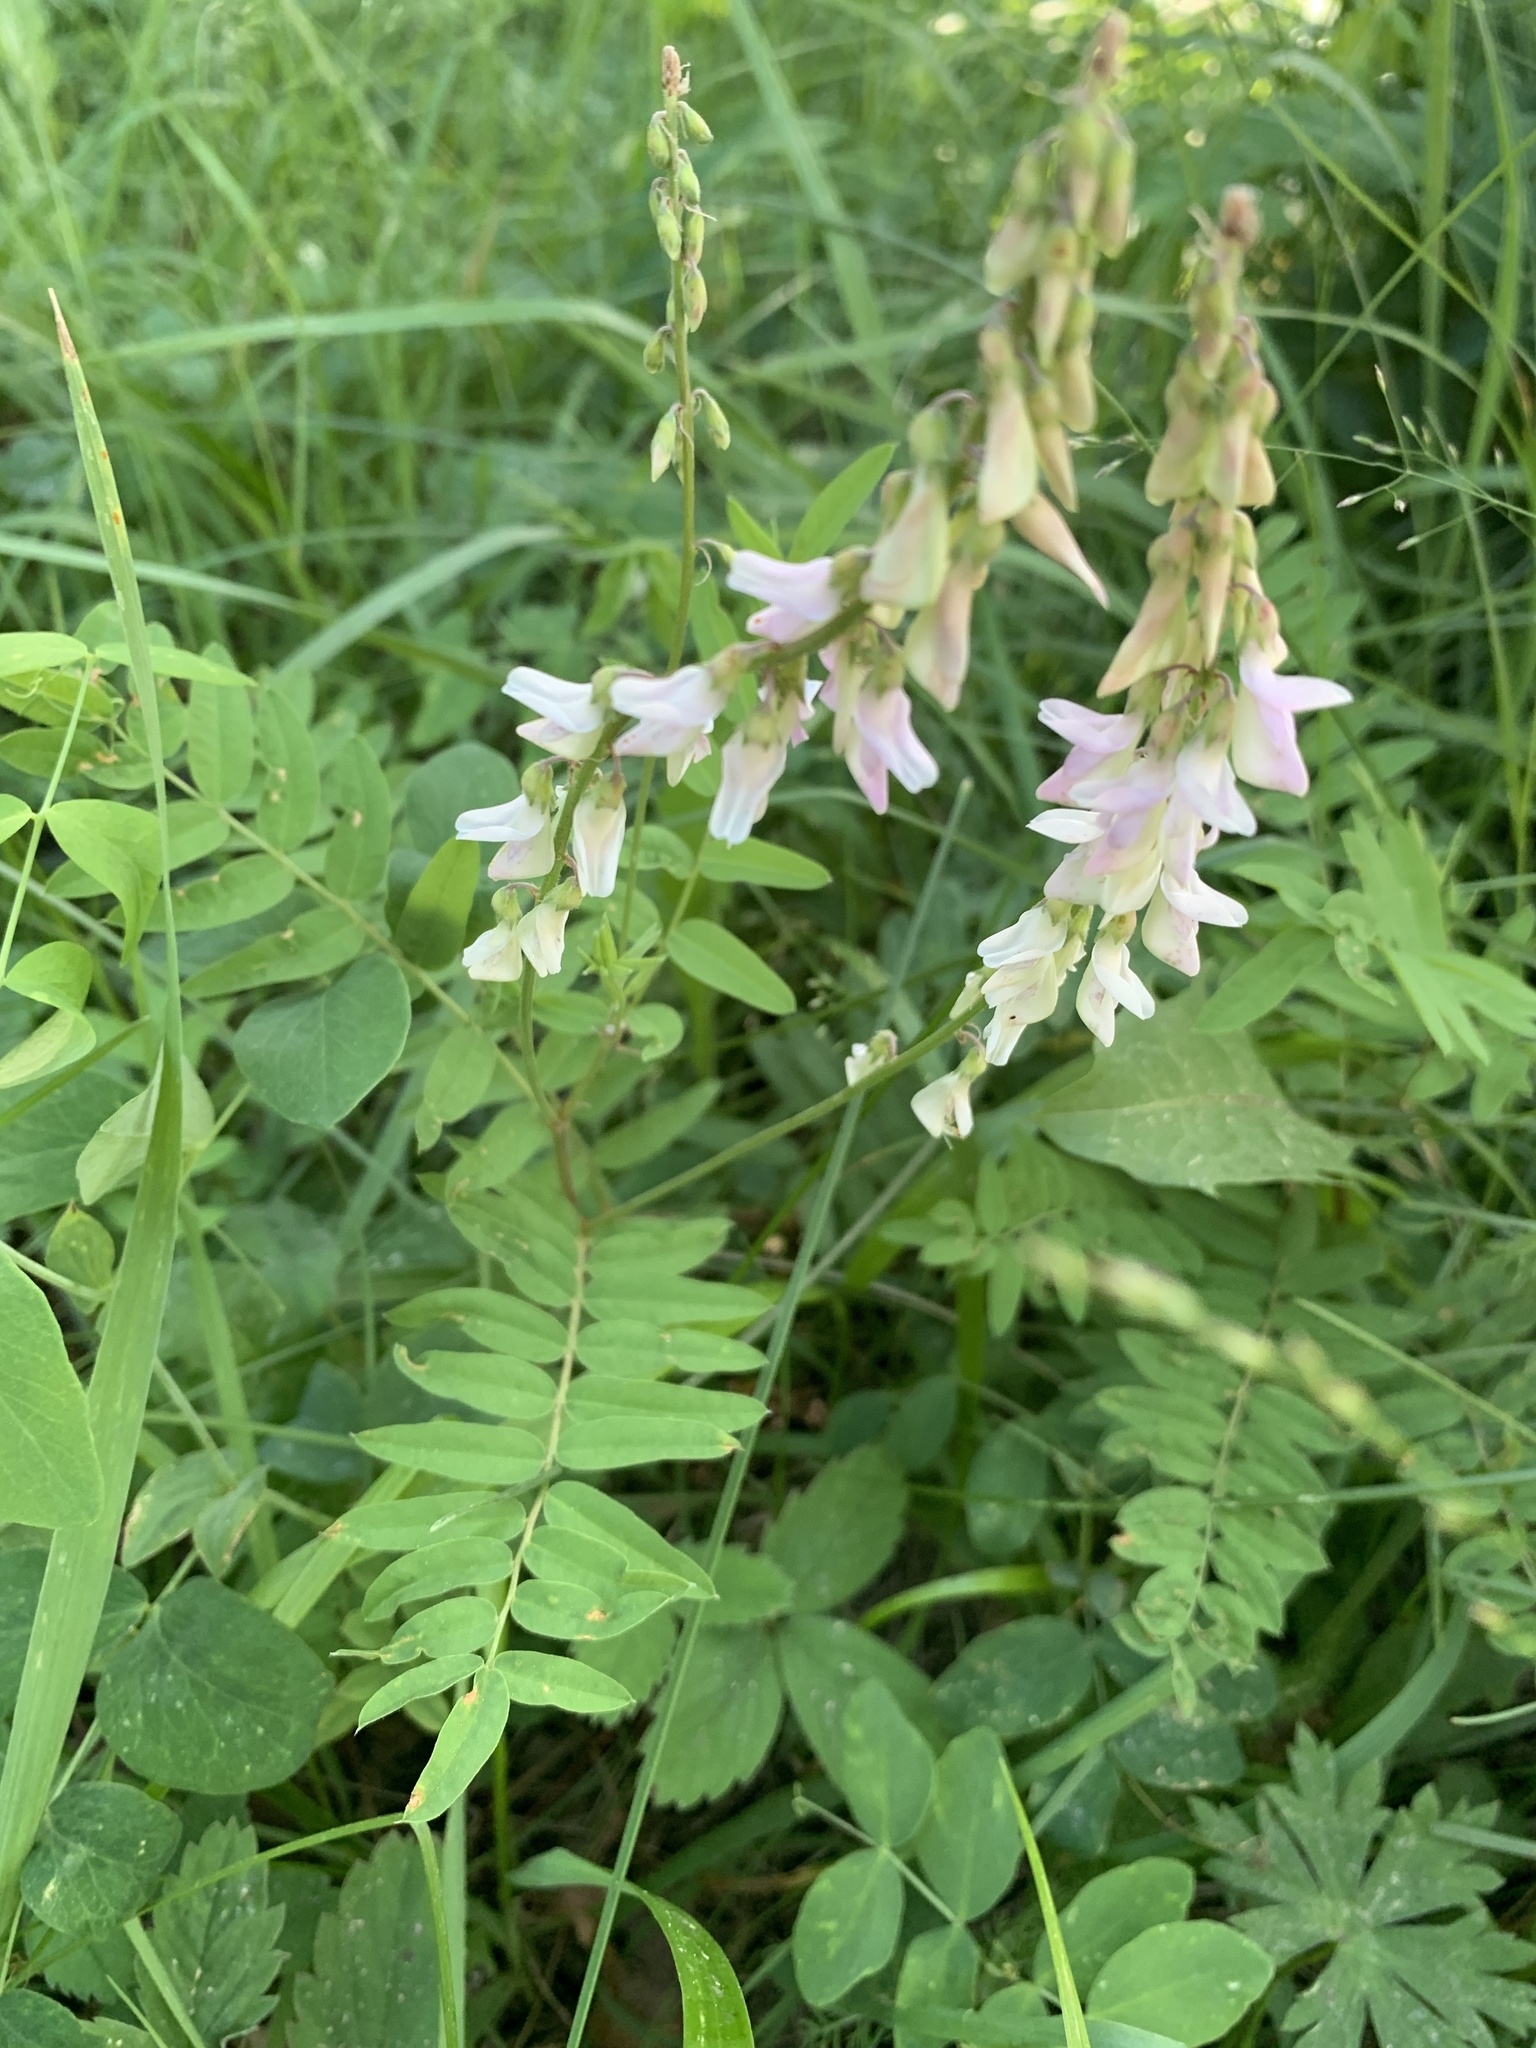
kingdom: Plantae
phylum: Tracheophyta
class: Magnoliopsida
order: Fabales
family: Fabaceae
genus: Hedysarum
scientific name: Hedysarum sulphurescens
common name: Sulphur hedysarum
